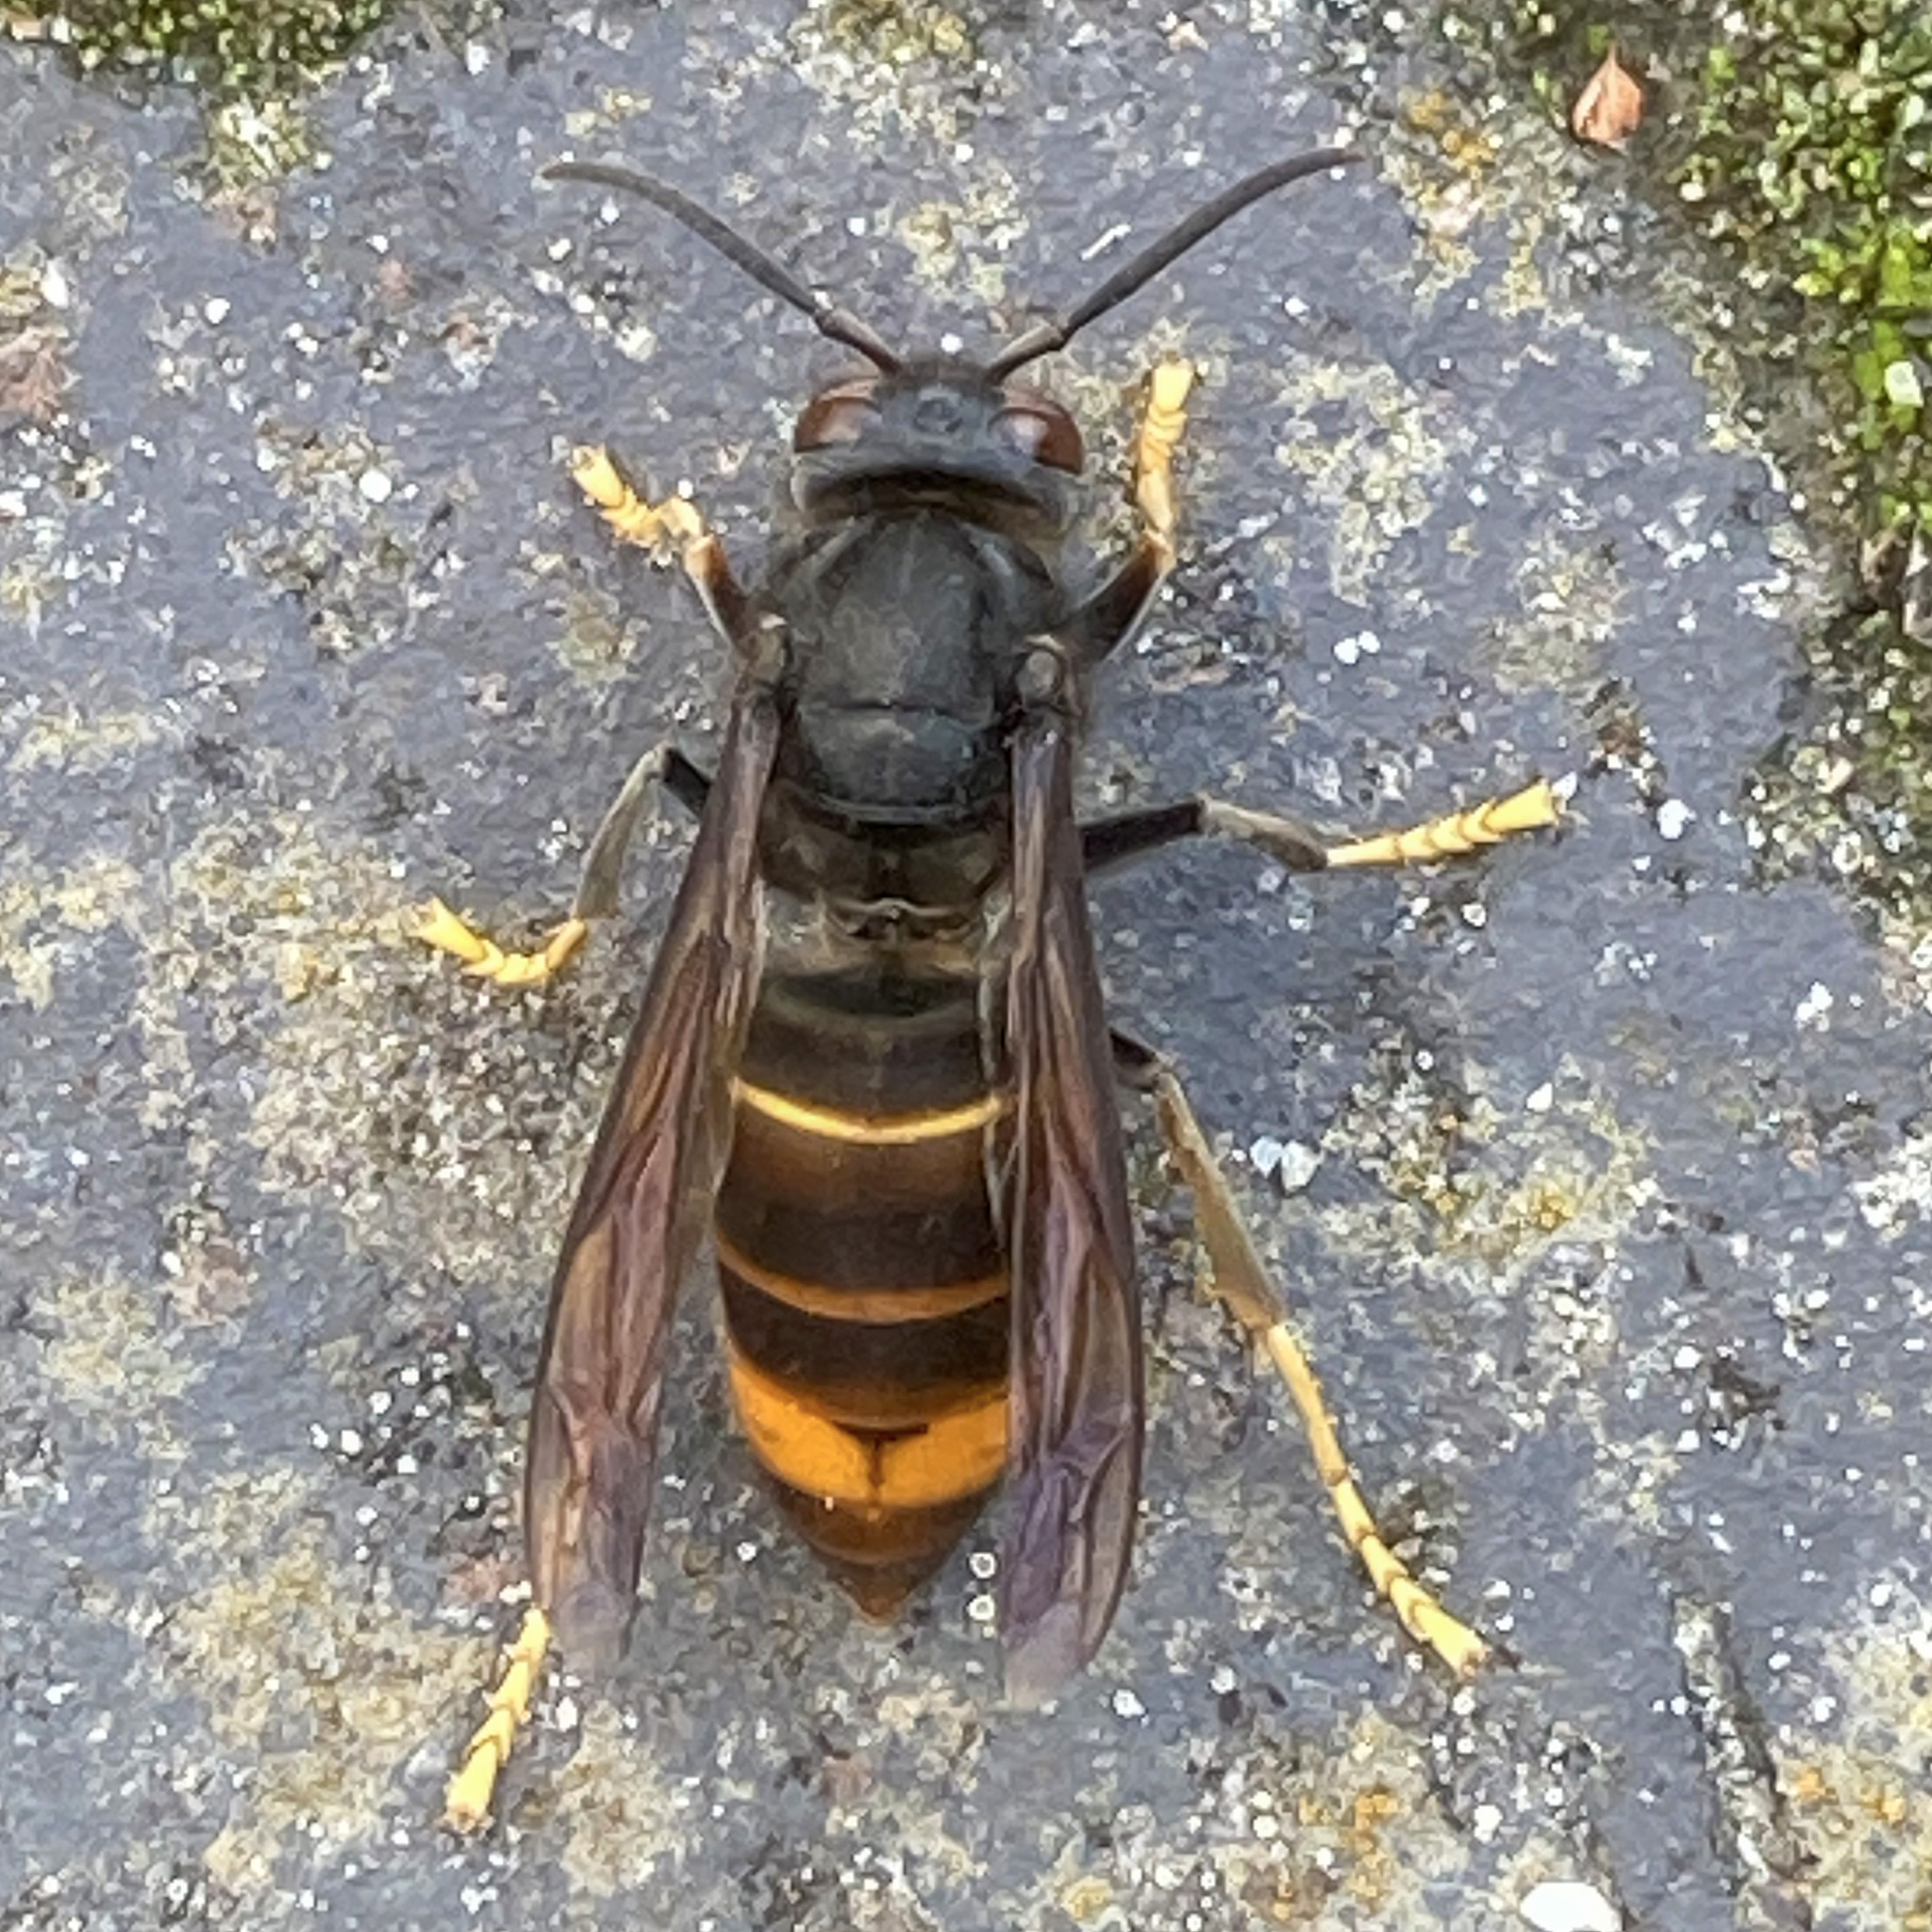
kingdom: Animalia
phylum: Arthropoda
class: Insecta
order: Hymenoptera
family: Vespidae
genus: Vespa
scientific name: Vespa velutina
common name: Asian hornet
